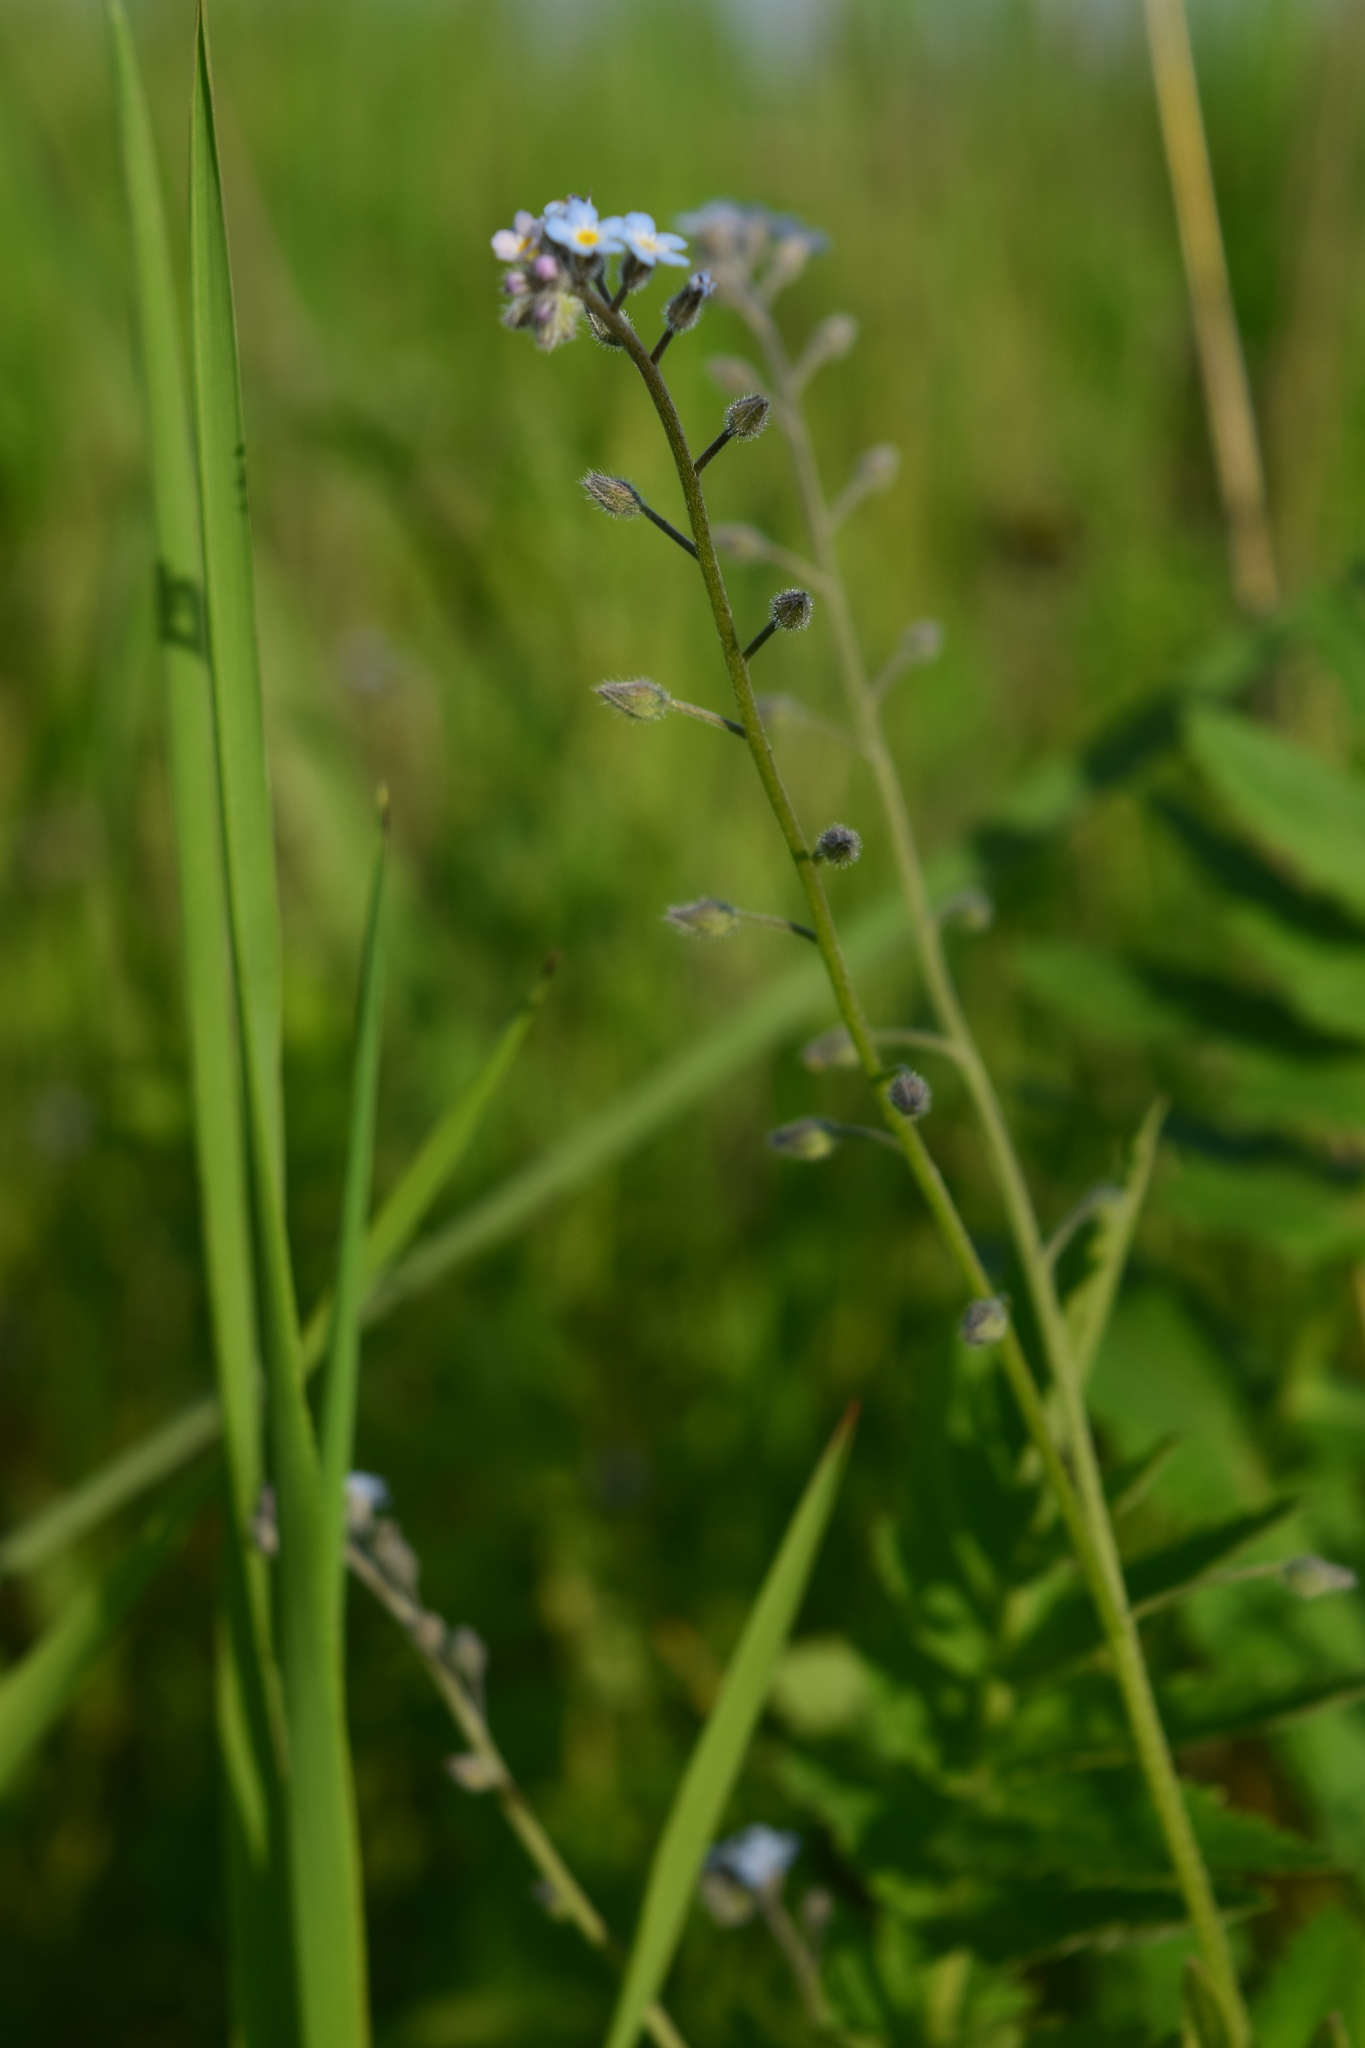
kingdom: Plantae
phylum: Tracheophyta
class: Magnoliopsida
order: Boraginales
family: Boraginaceae
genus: Myosotis
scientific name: Myosotis arvensis
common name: Field forget-me-not
